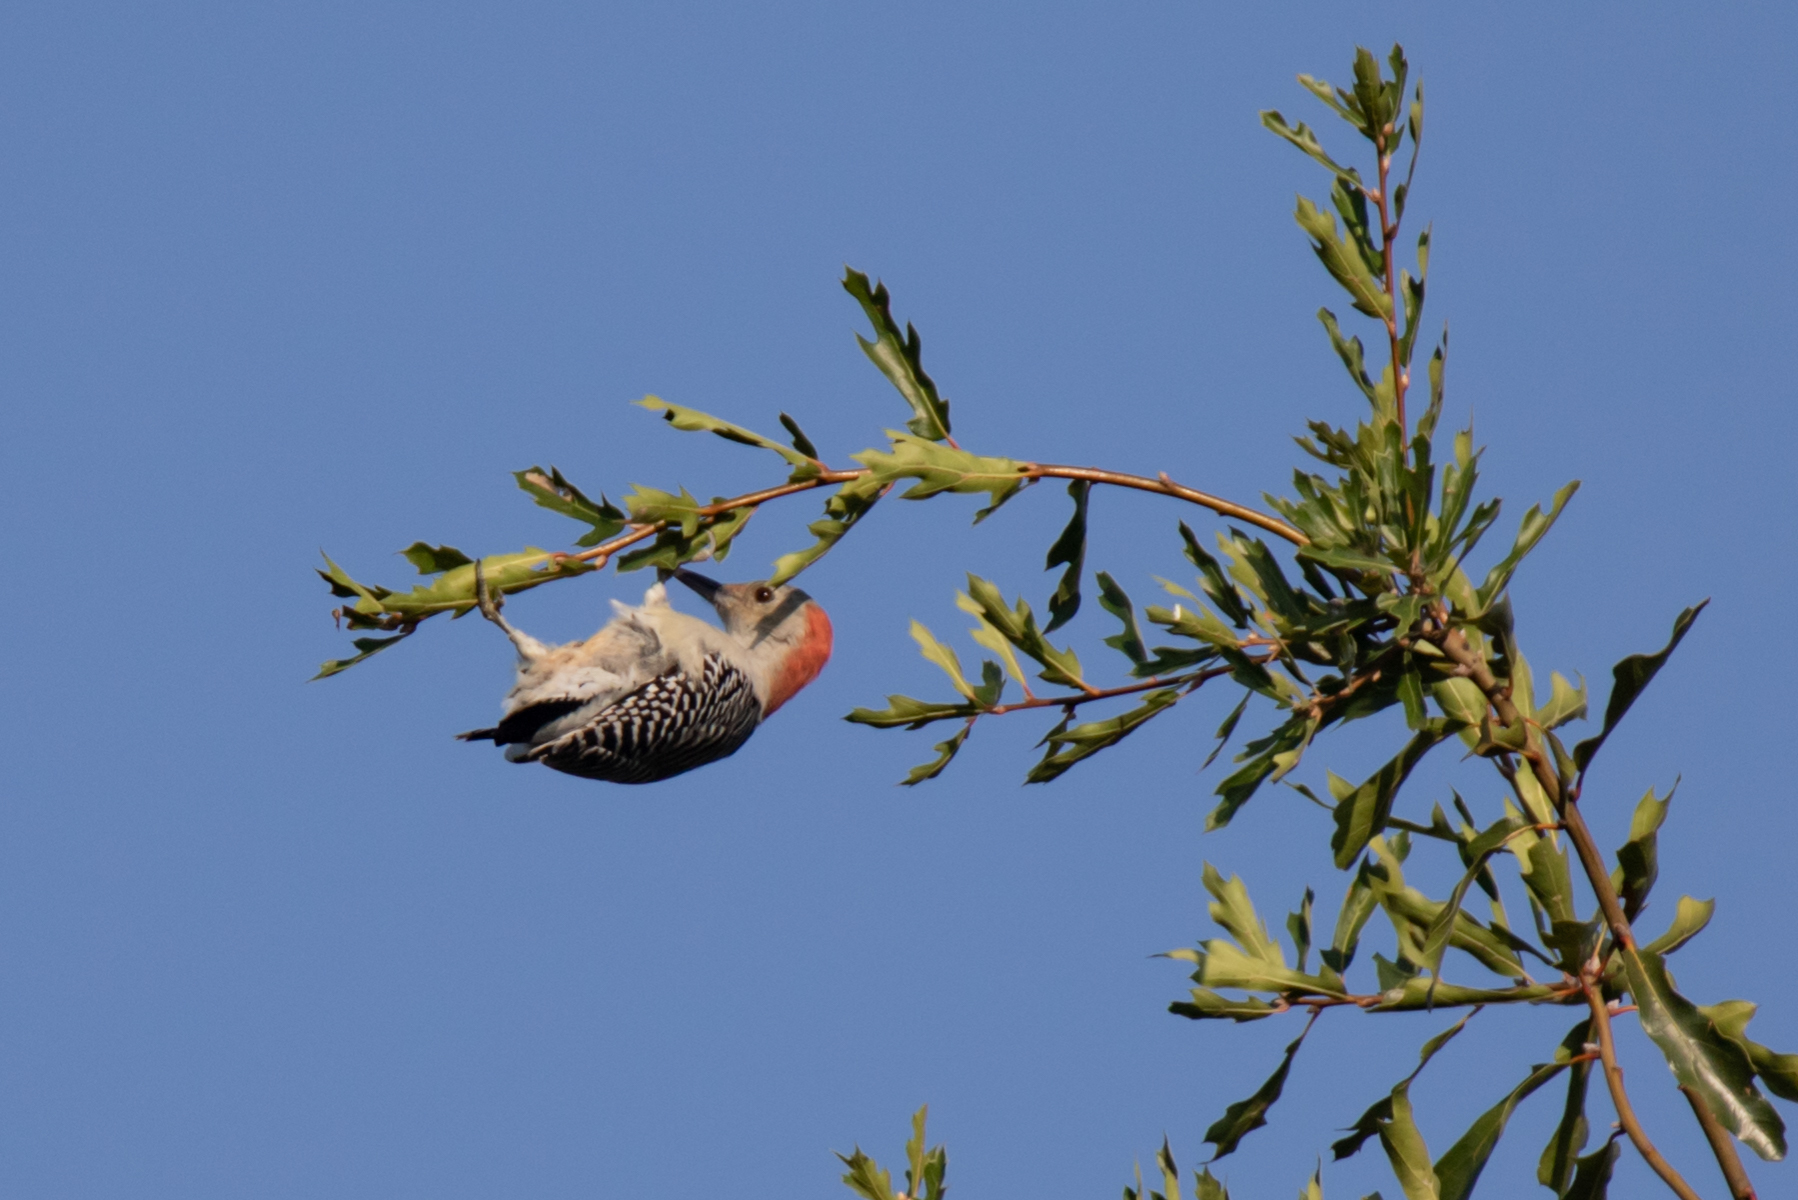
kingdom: Animalia
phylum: Chordata
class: Aves
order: Piciformes
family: Picidae
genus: Melanerpes
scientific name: Melanerpes carolinus
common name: Red-bellied woodpecker
